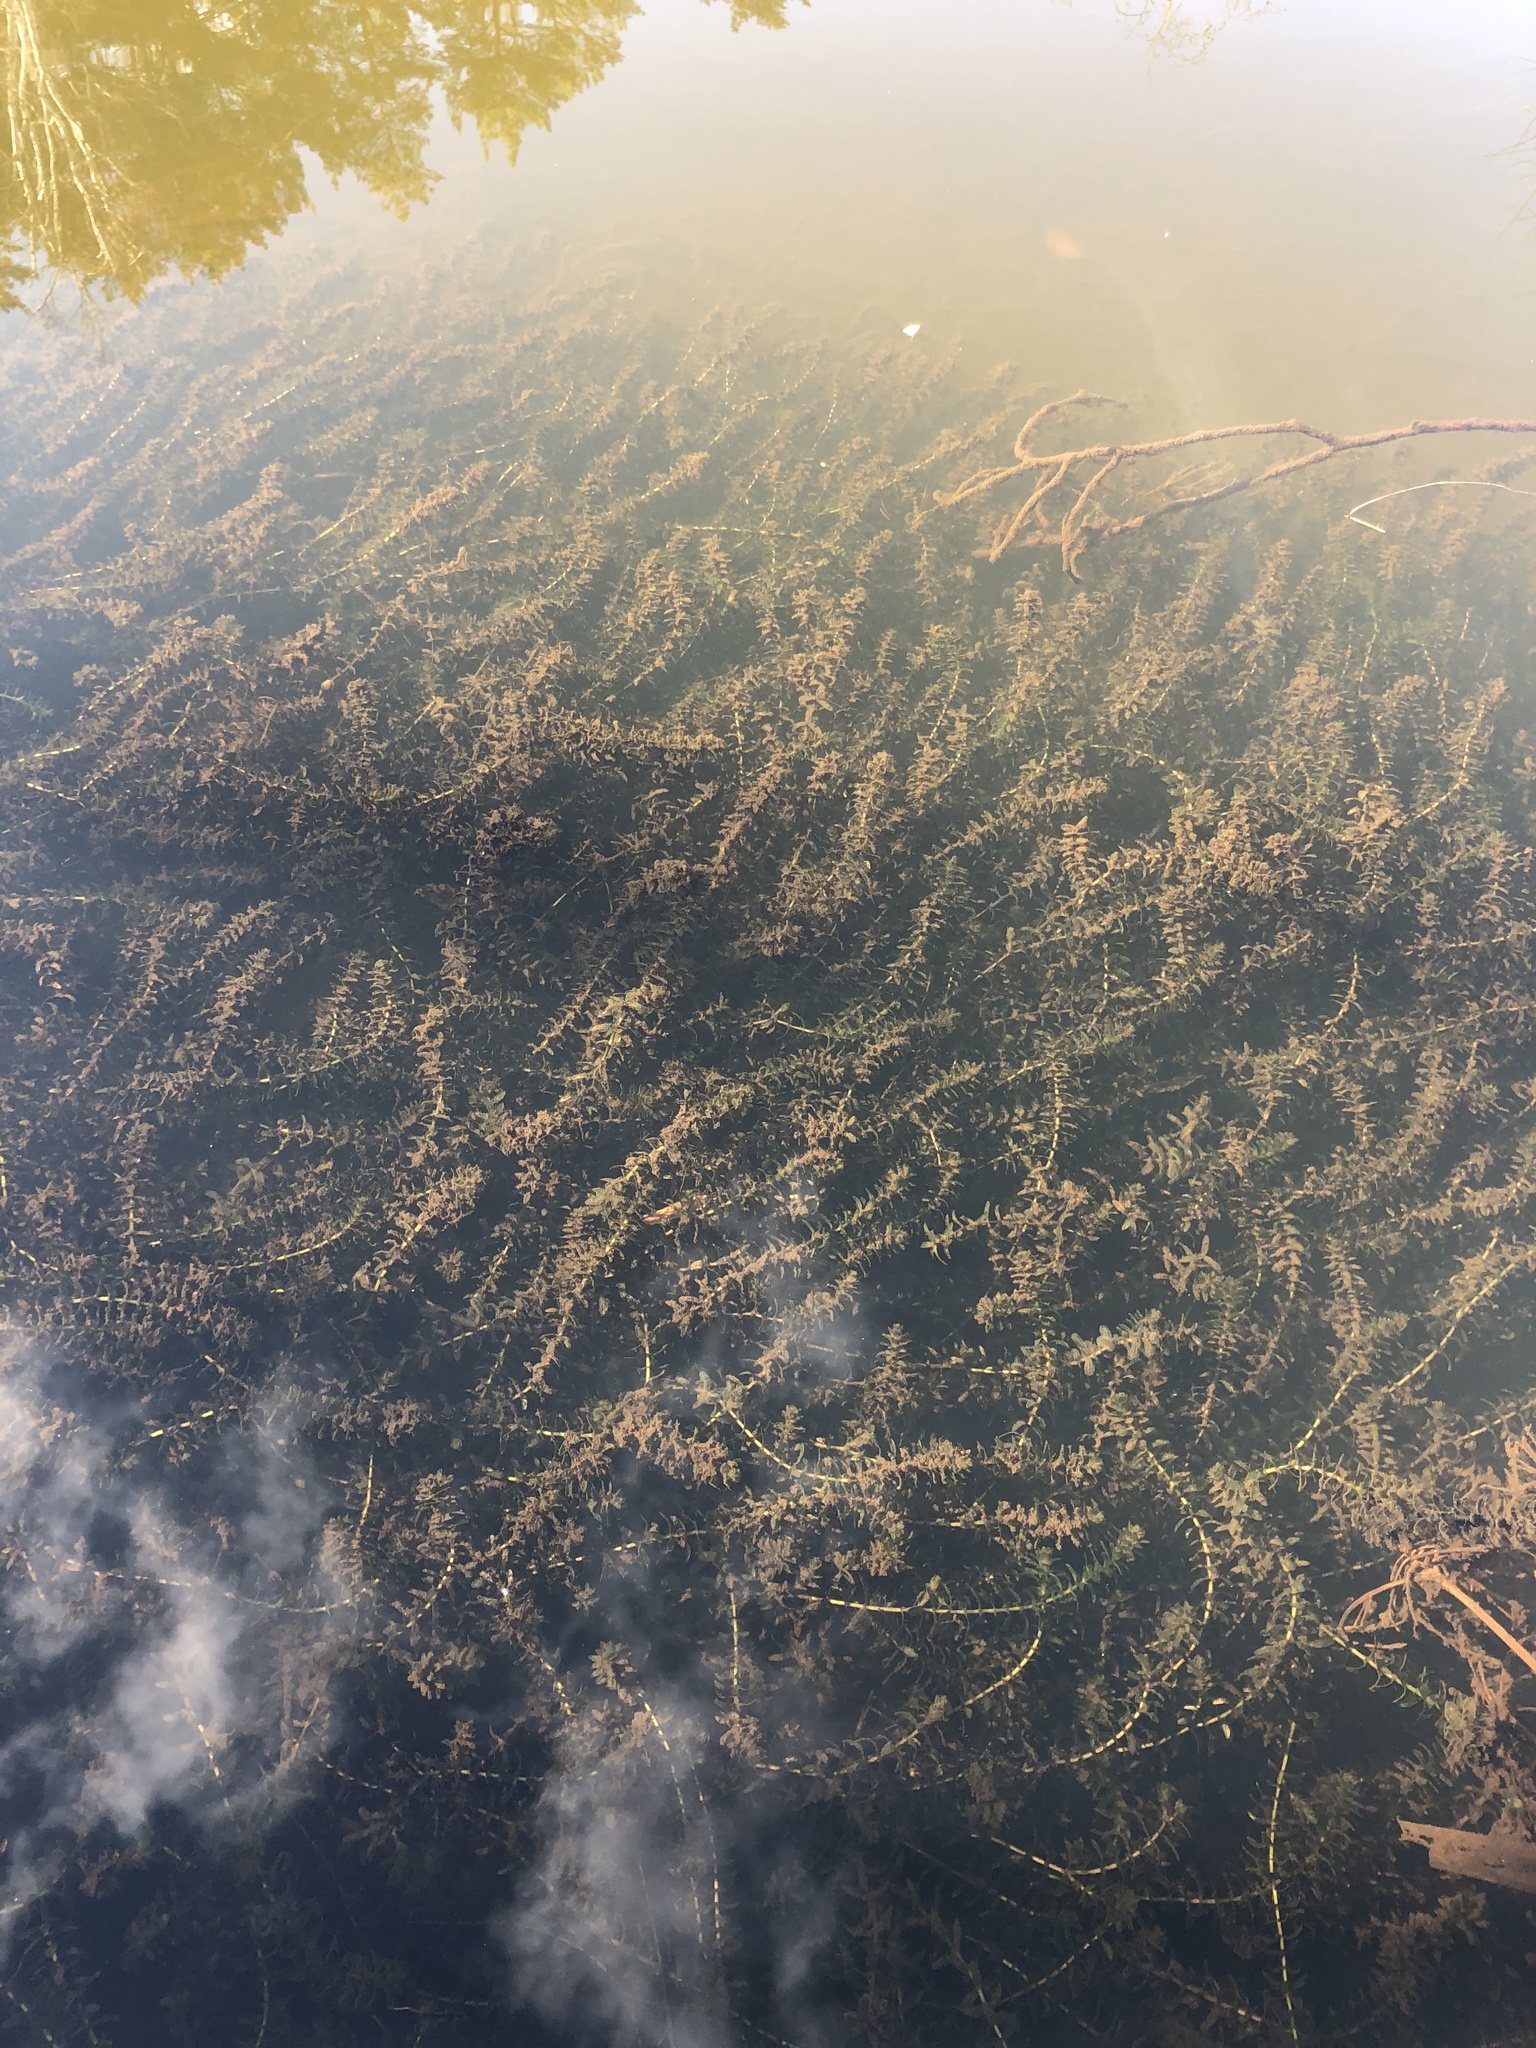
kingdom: Plantae
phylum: Tracheophyta
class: Liliopsida
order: Alismatales
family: Hydrocharitaceae
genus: Elodea
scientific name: Elodea canadensis
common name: Canadian waterweed
